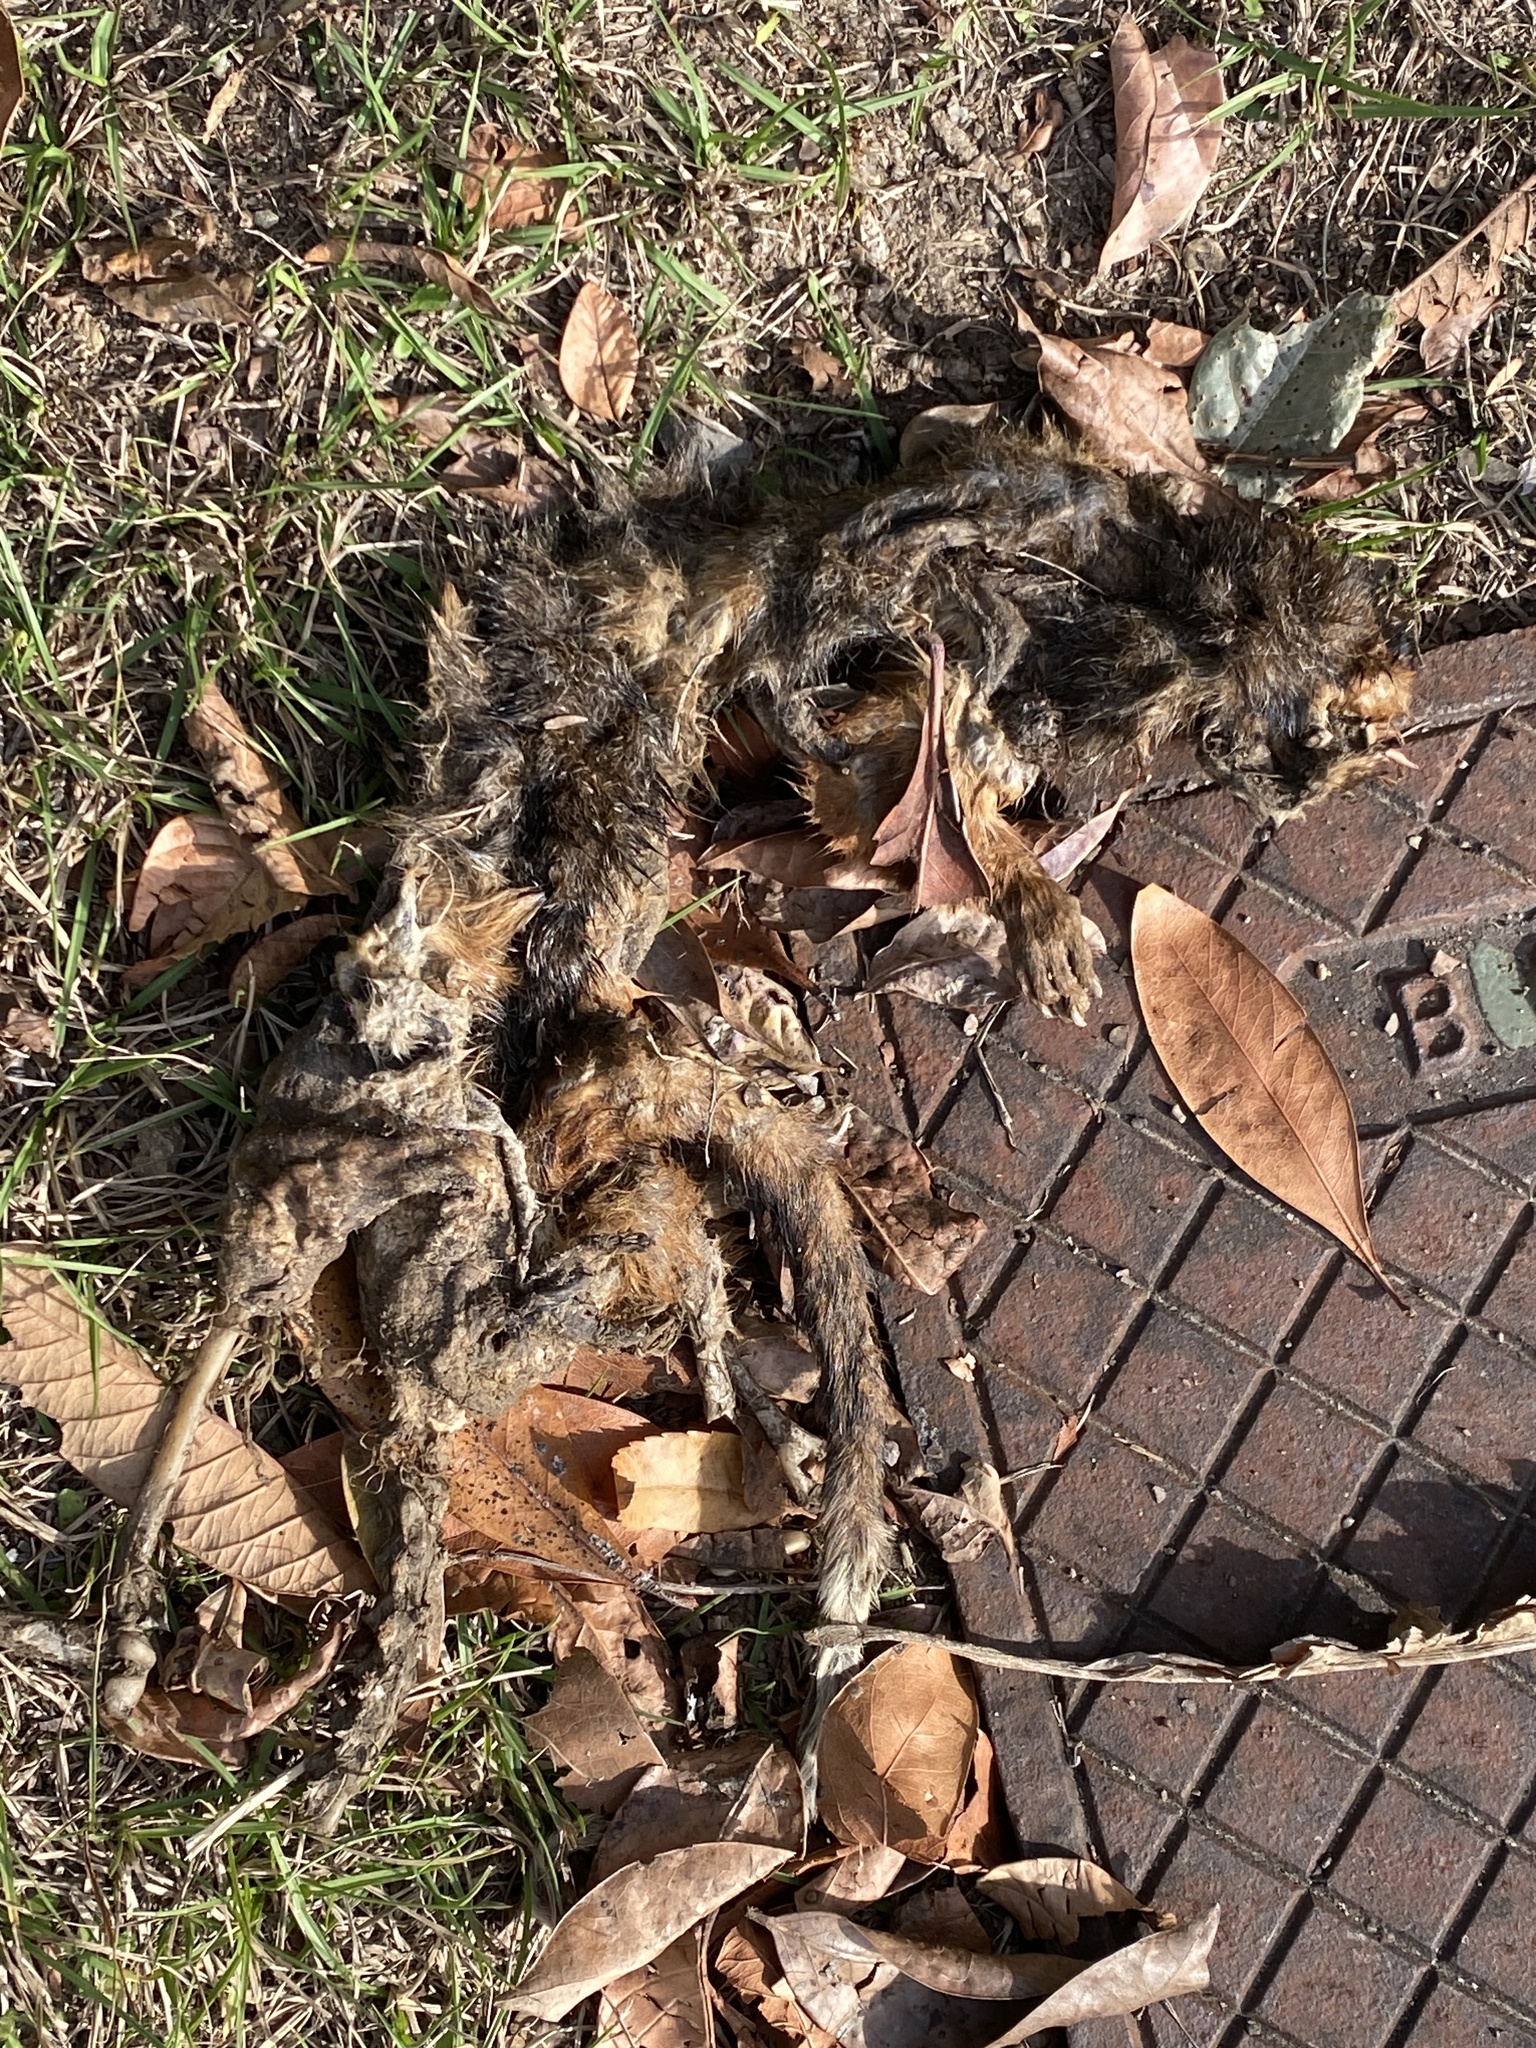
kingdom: Animalia
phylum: Chordata
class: Mammalia
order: Diprotodontia
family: Pseudocheiridae
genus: Pseudocheirus
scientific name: Pseudocheirus peregrinus
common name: Common ringtail possum
